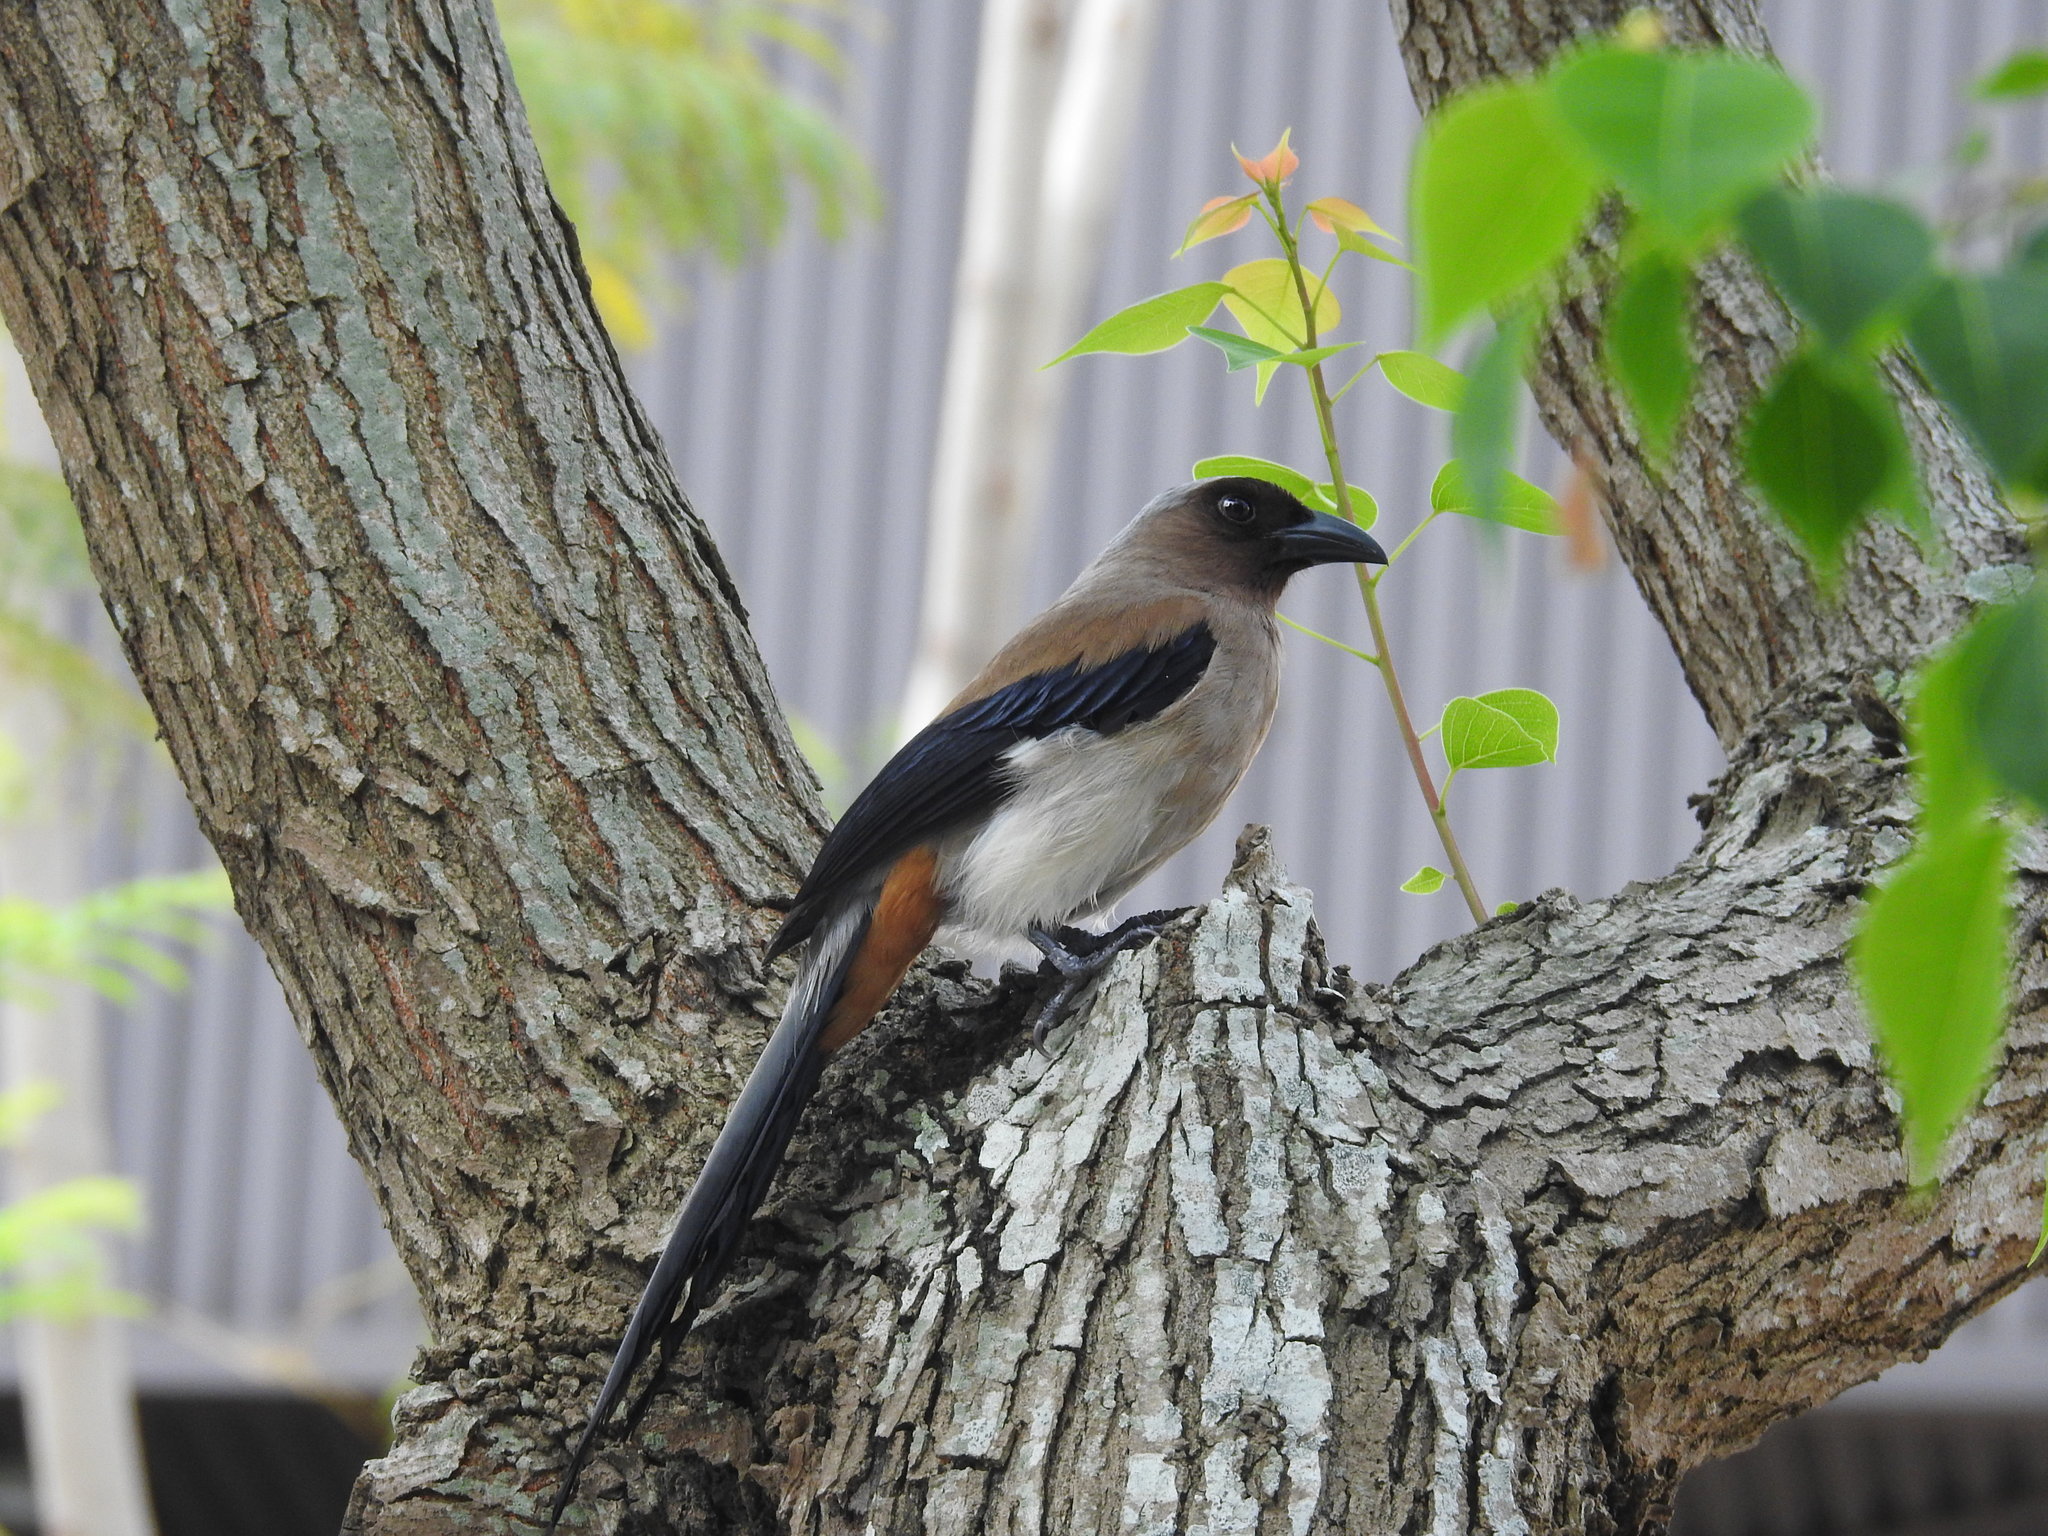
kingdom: Animalia
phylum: Chordata
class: Aves
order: Passeriformes
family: Corvidae
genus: Dendrocitta
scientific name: Dendrocitta formosae
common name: Grey treepie
